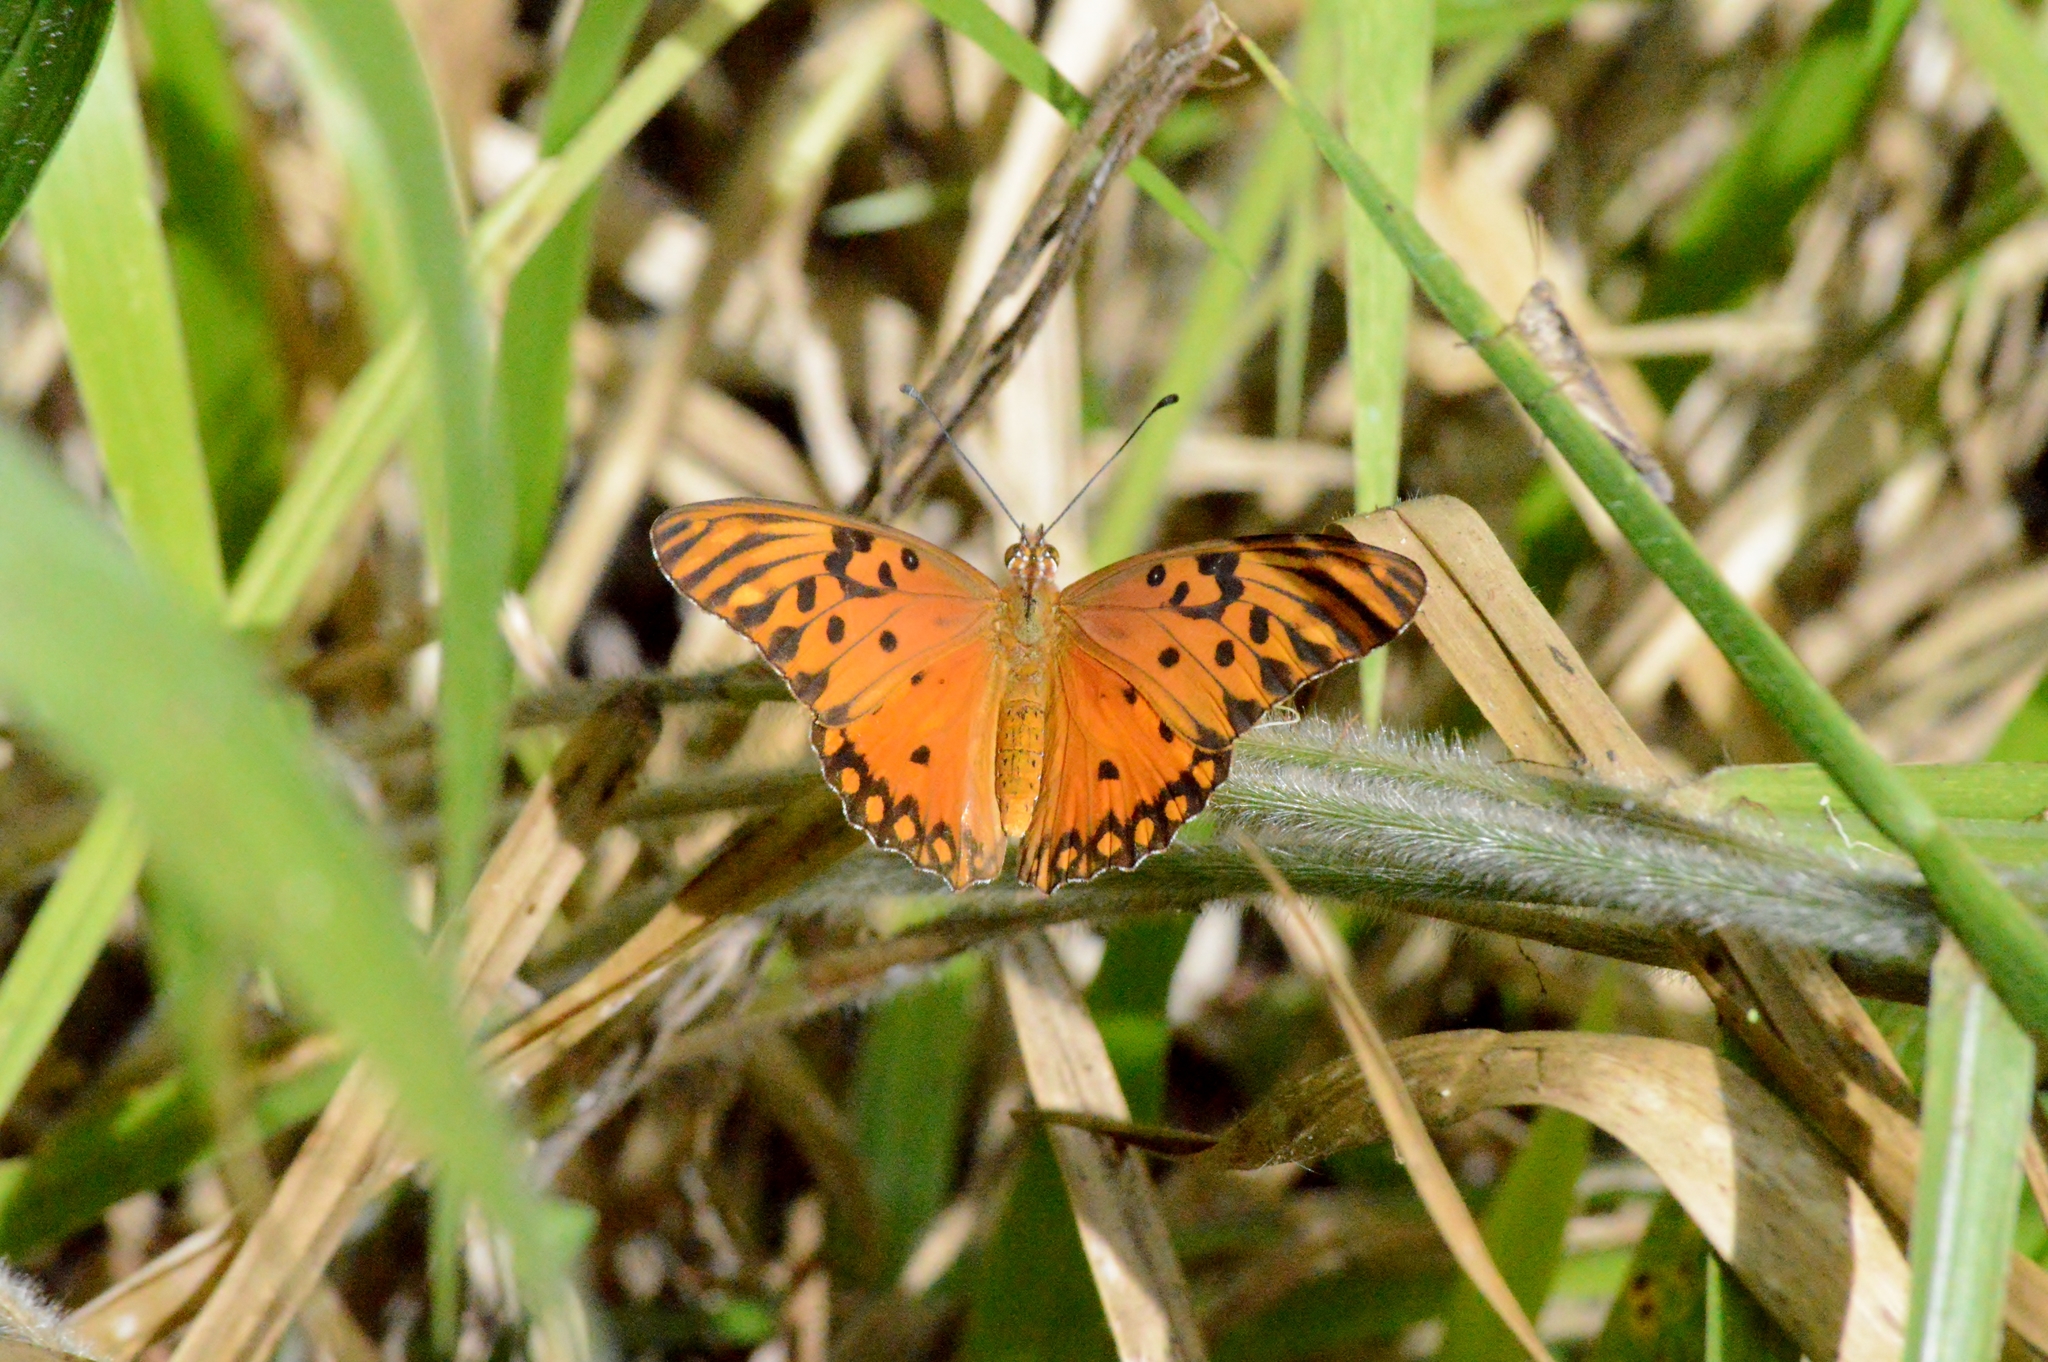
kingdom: Animalia
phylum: Arthropoda
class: Insecta
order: Lepidoptera
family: Nymphalidae
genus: Dione
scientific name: Dione vanillae
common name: Gulf fritillary
